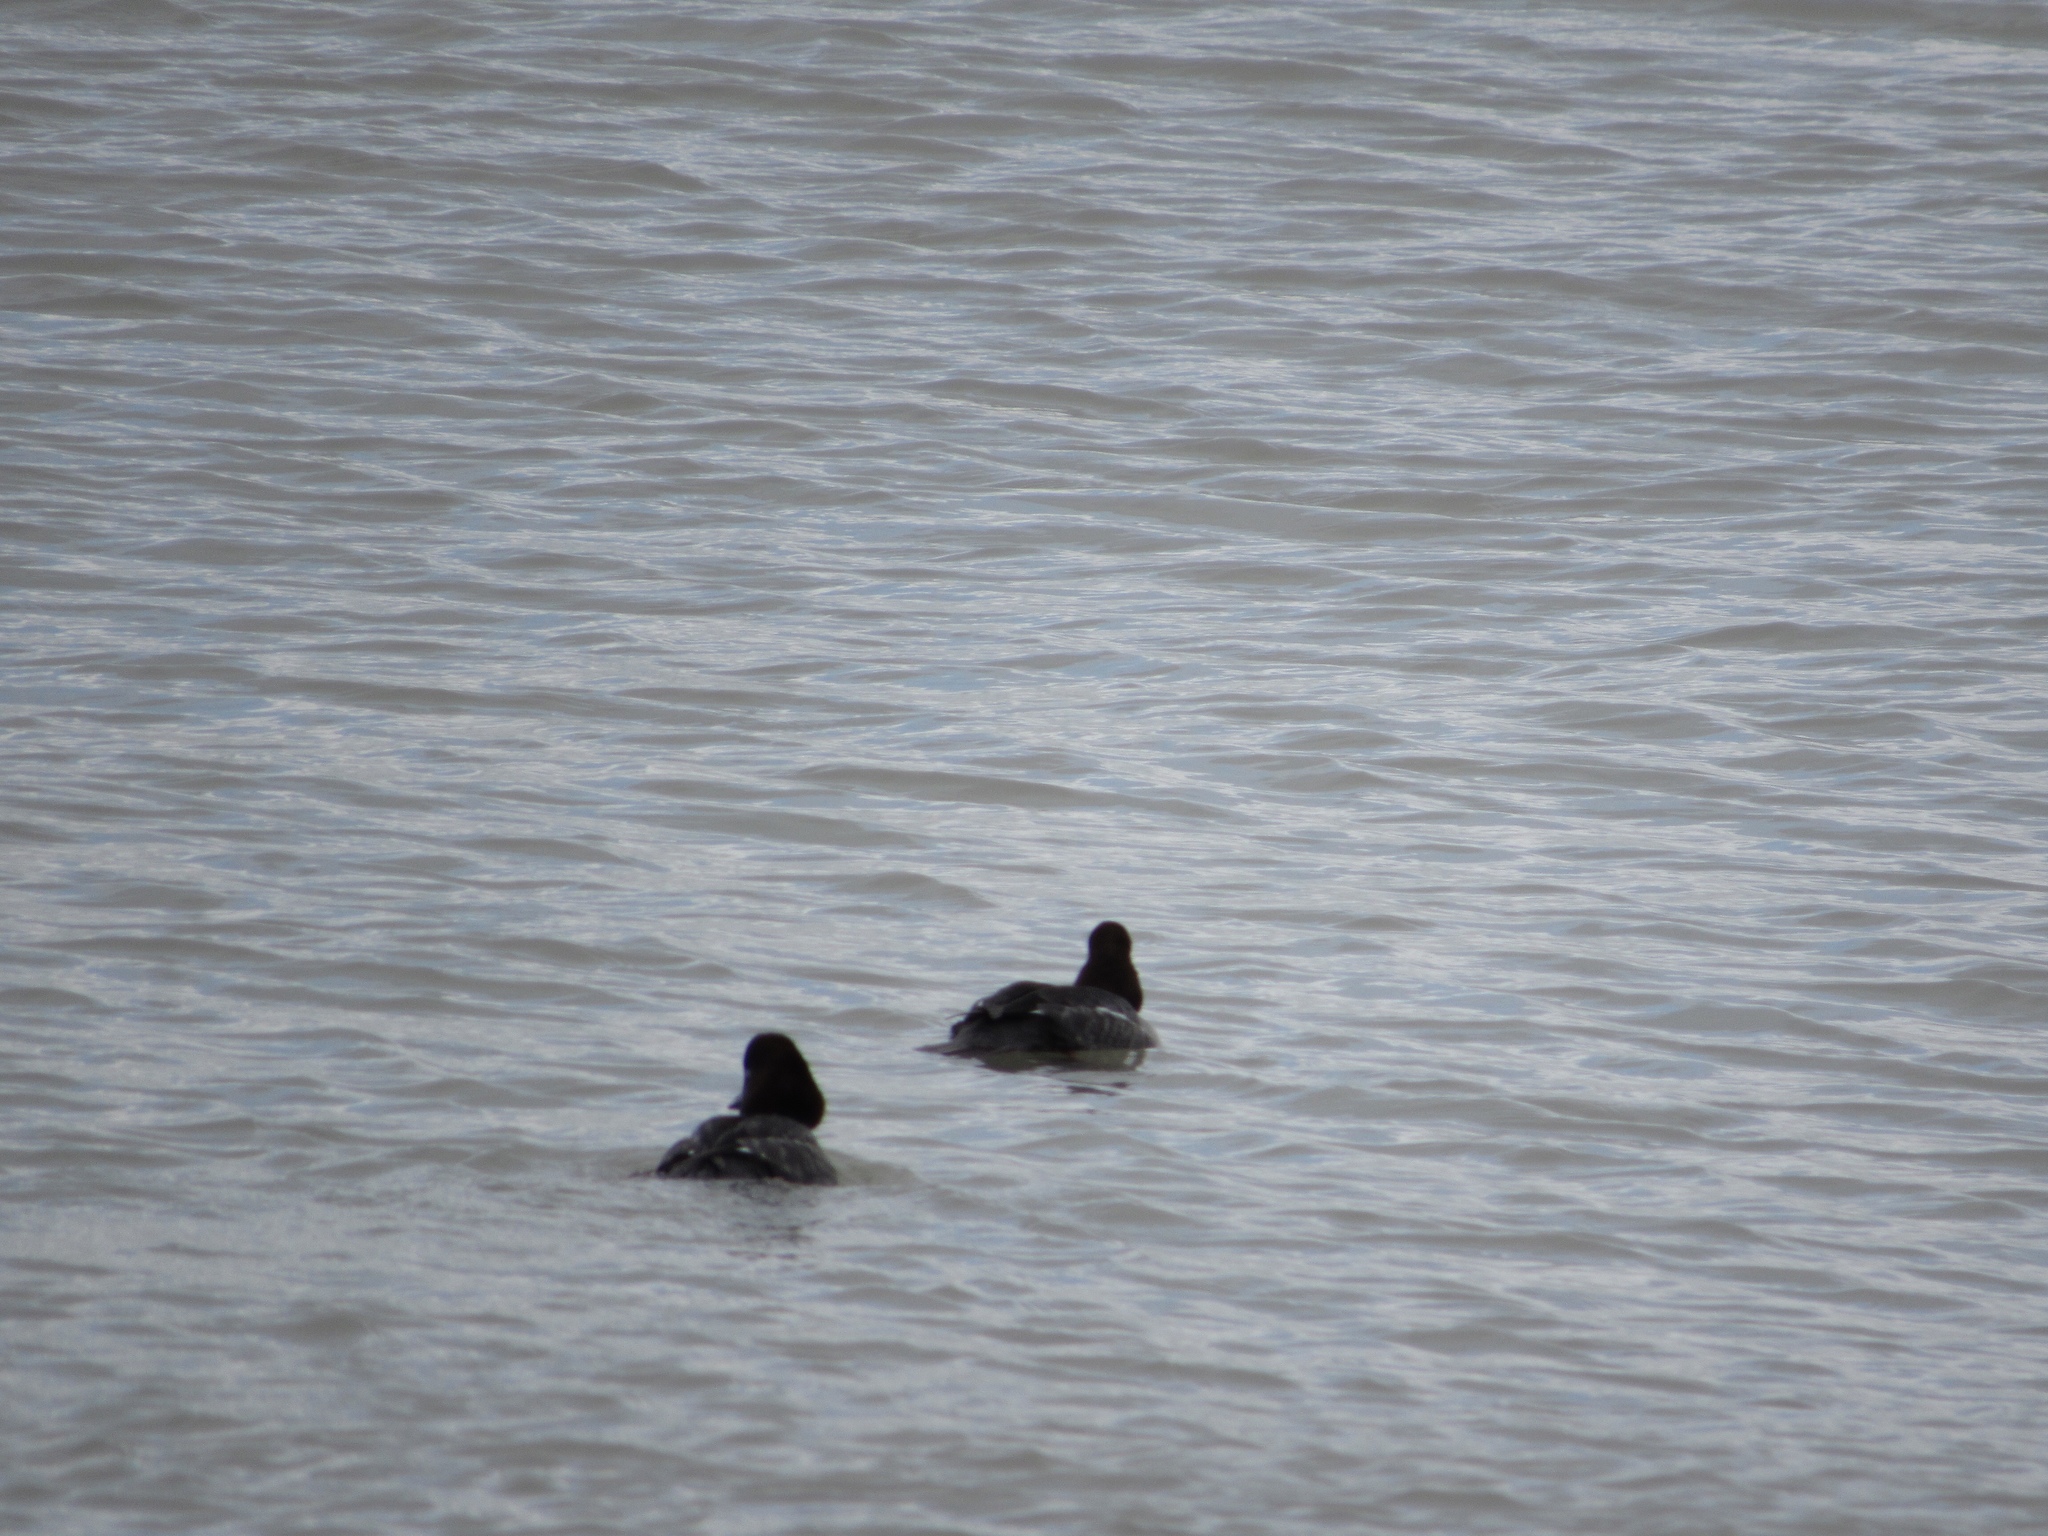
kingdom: Animalia
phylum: Chordata
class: Aves
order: Anseriformes
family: Anatidae
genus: Bucephala
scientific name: Bucephala clangula
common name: Common goldeneye
